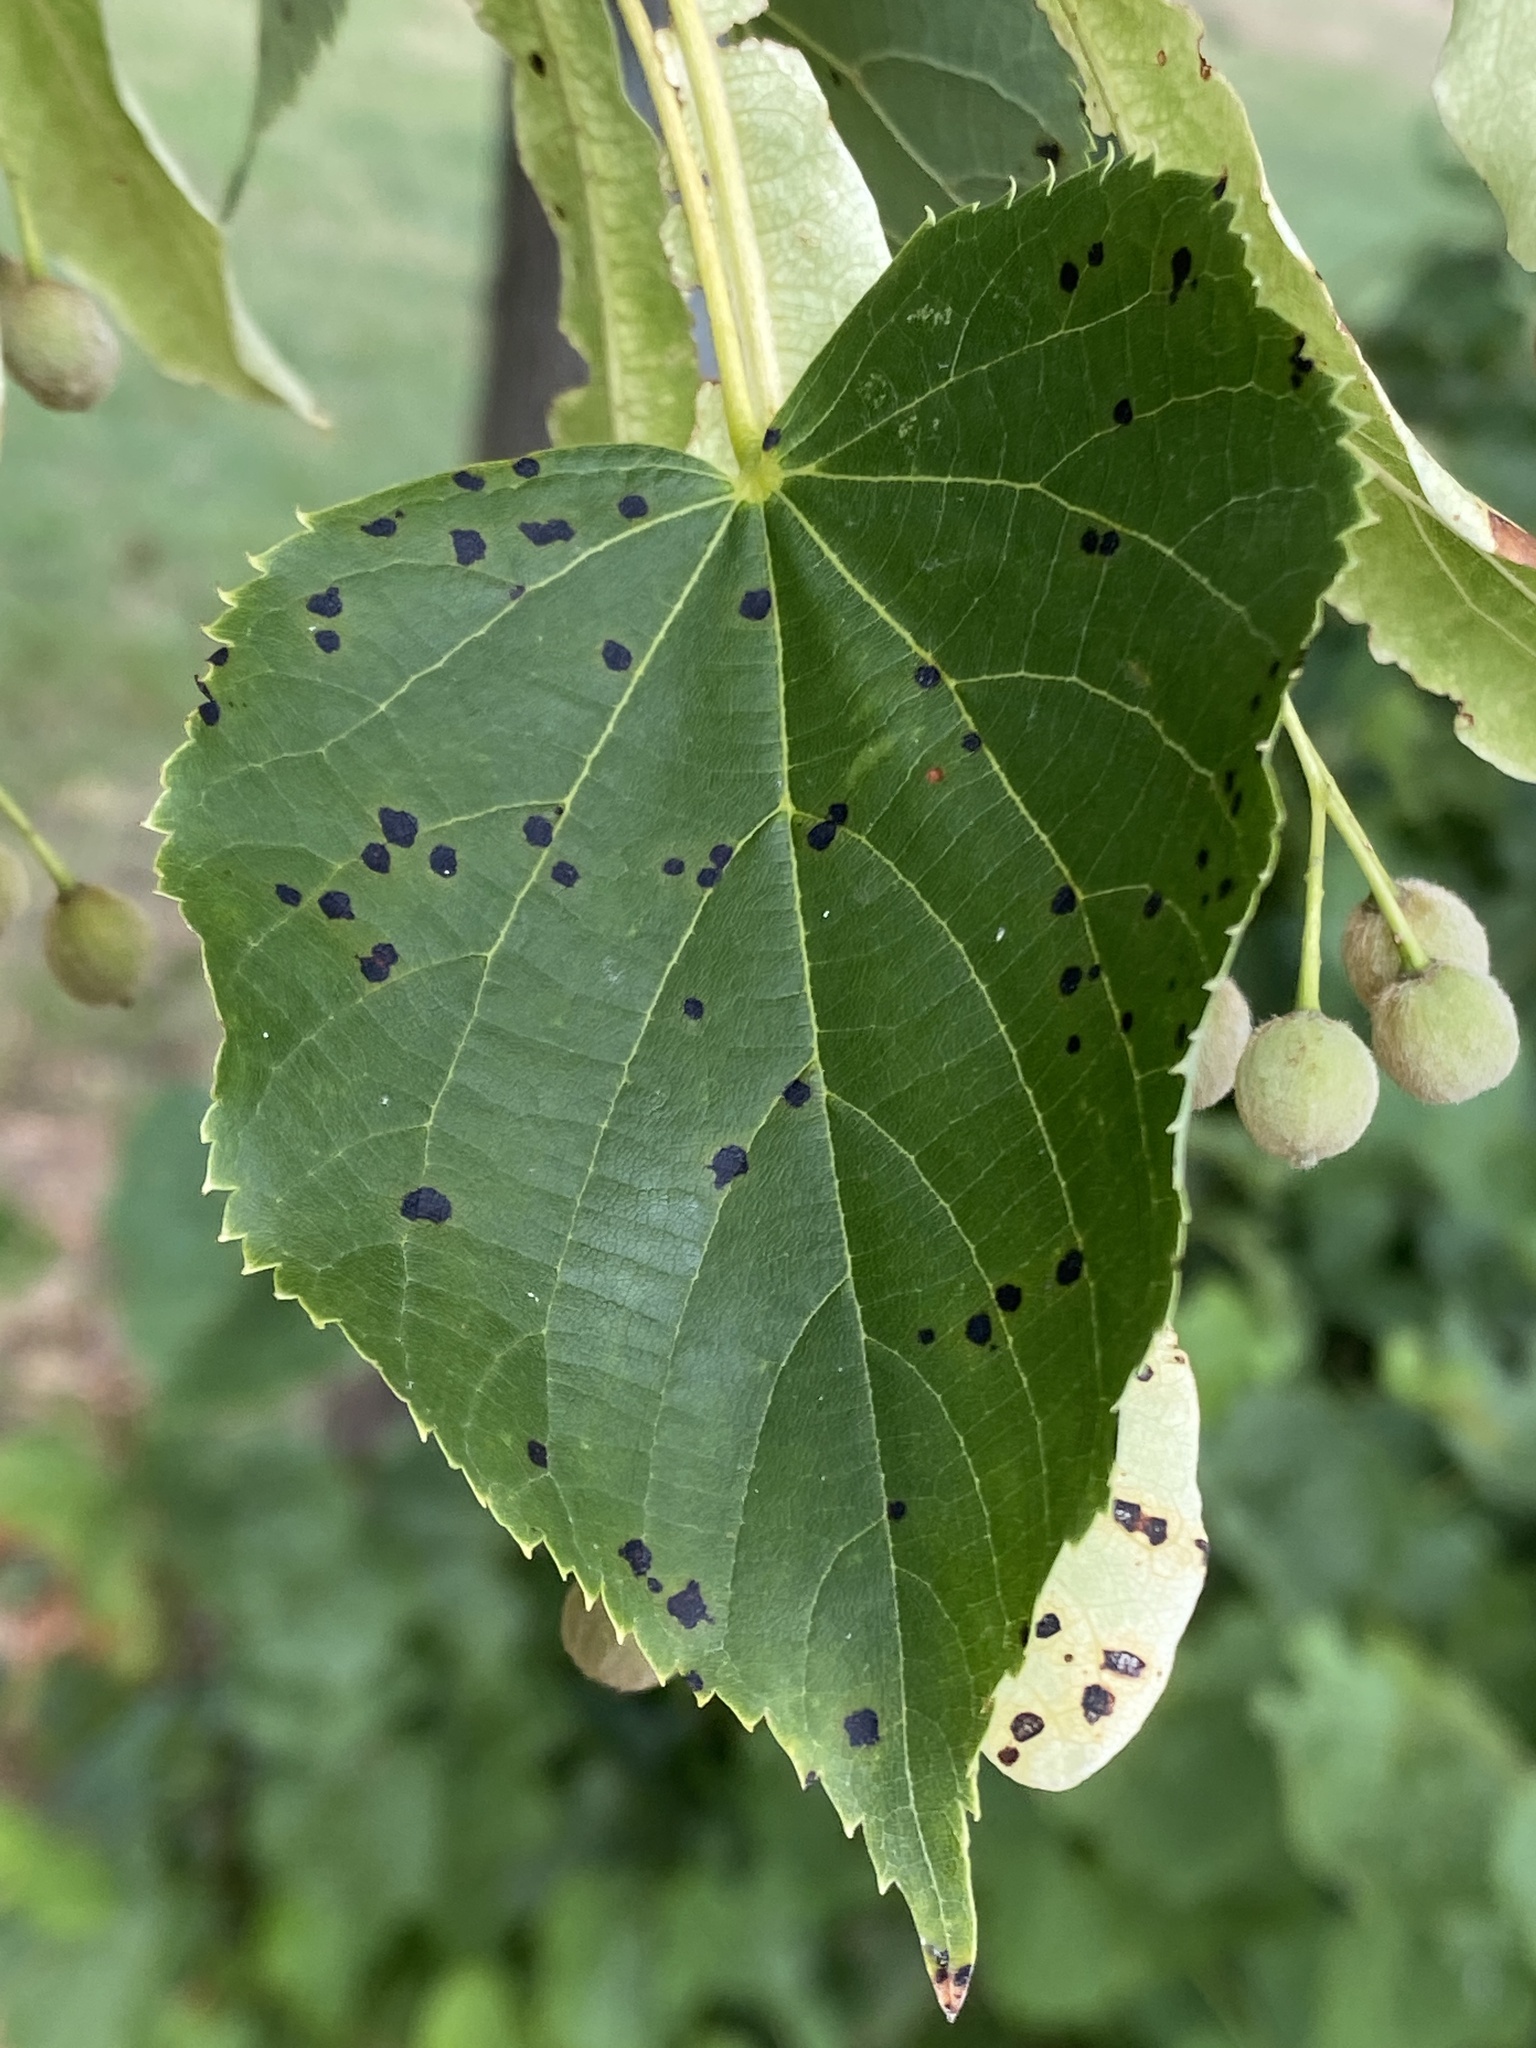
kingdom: Plantae
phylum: Tracheophyta
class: Magnoliopsida
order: Malvales
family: Malvaceae
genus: Tilia
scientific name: Tilia cordata
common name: Small-leaved lime
